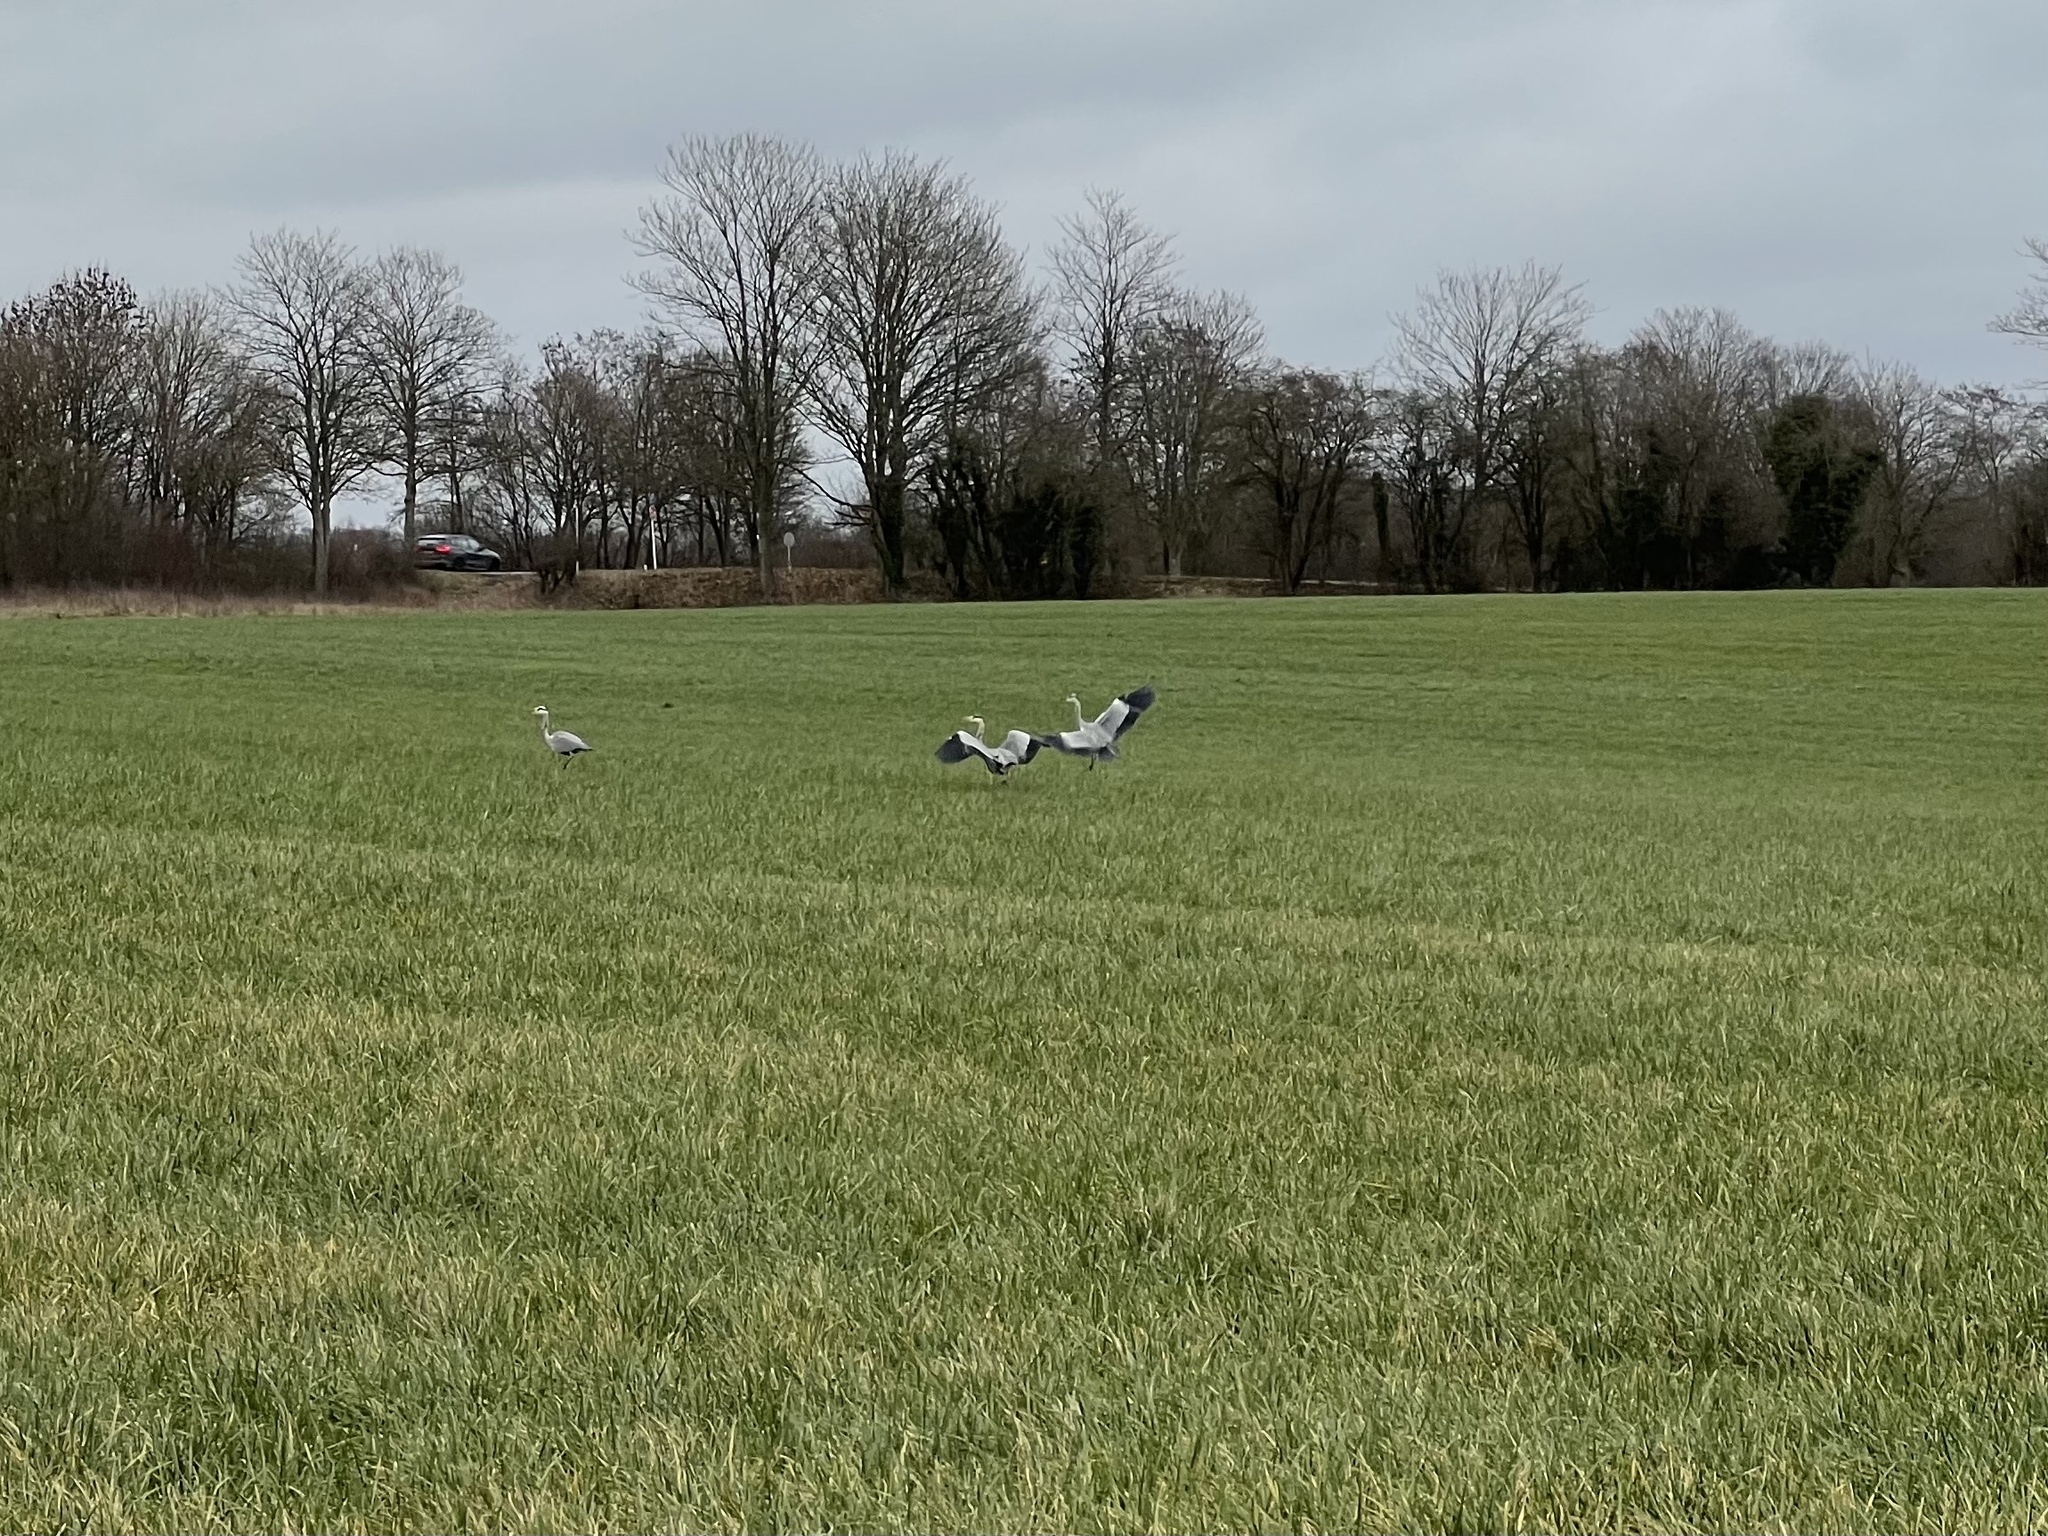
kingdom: Animalia
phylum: Chordata
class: Aves
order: Pelecaniformes
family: Ardeidae
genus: Ardea
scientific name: Ardea cinerea
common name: Grey heron
